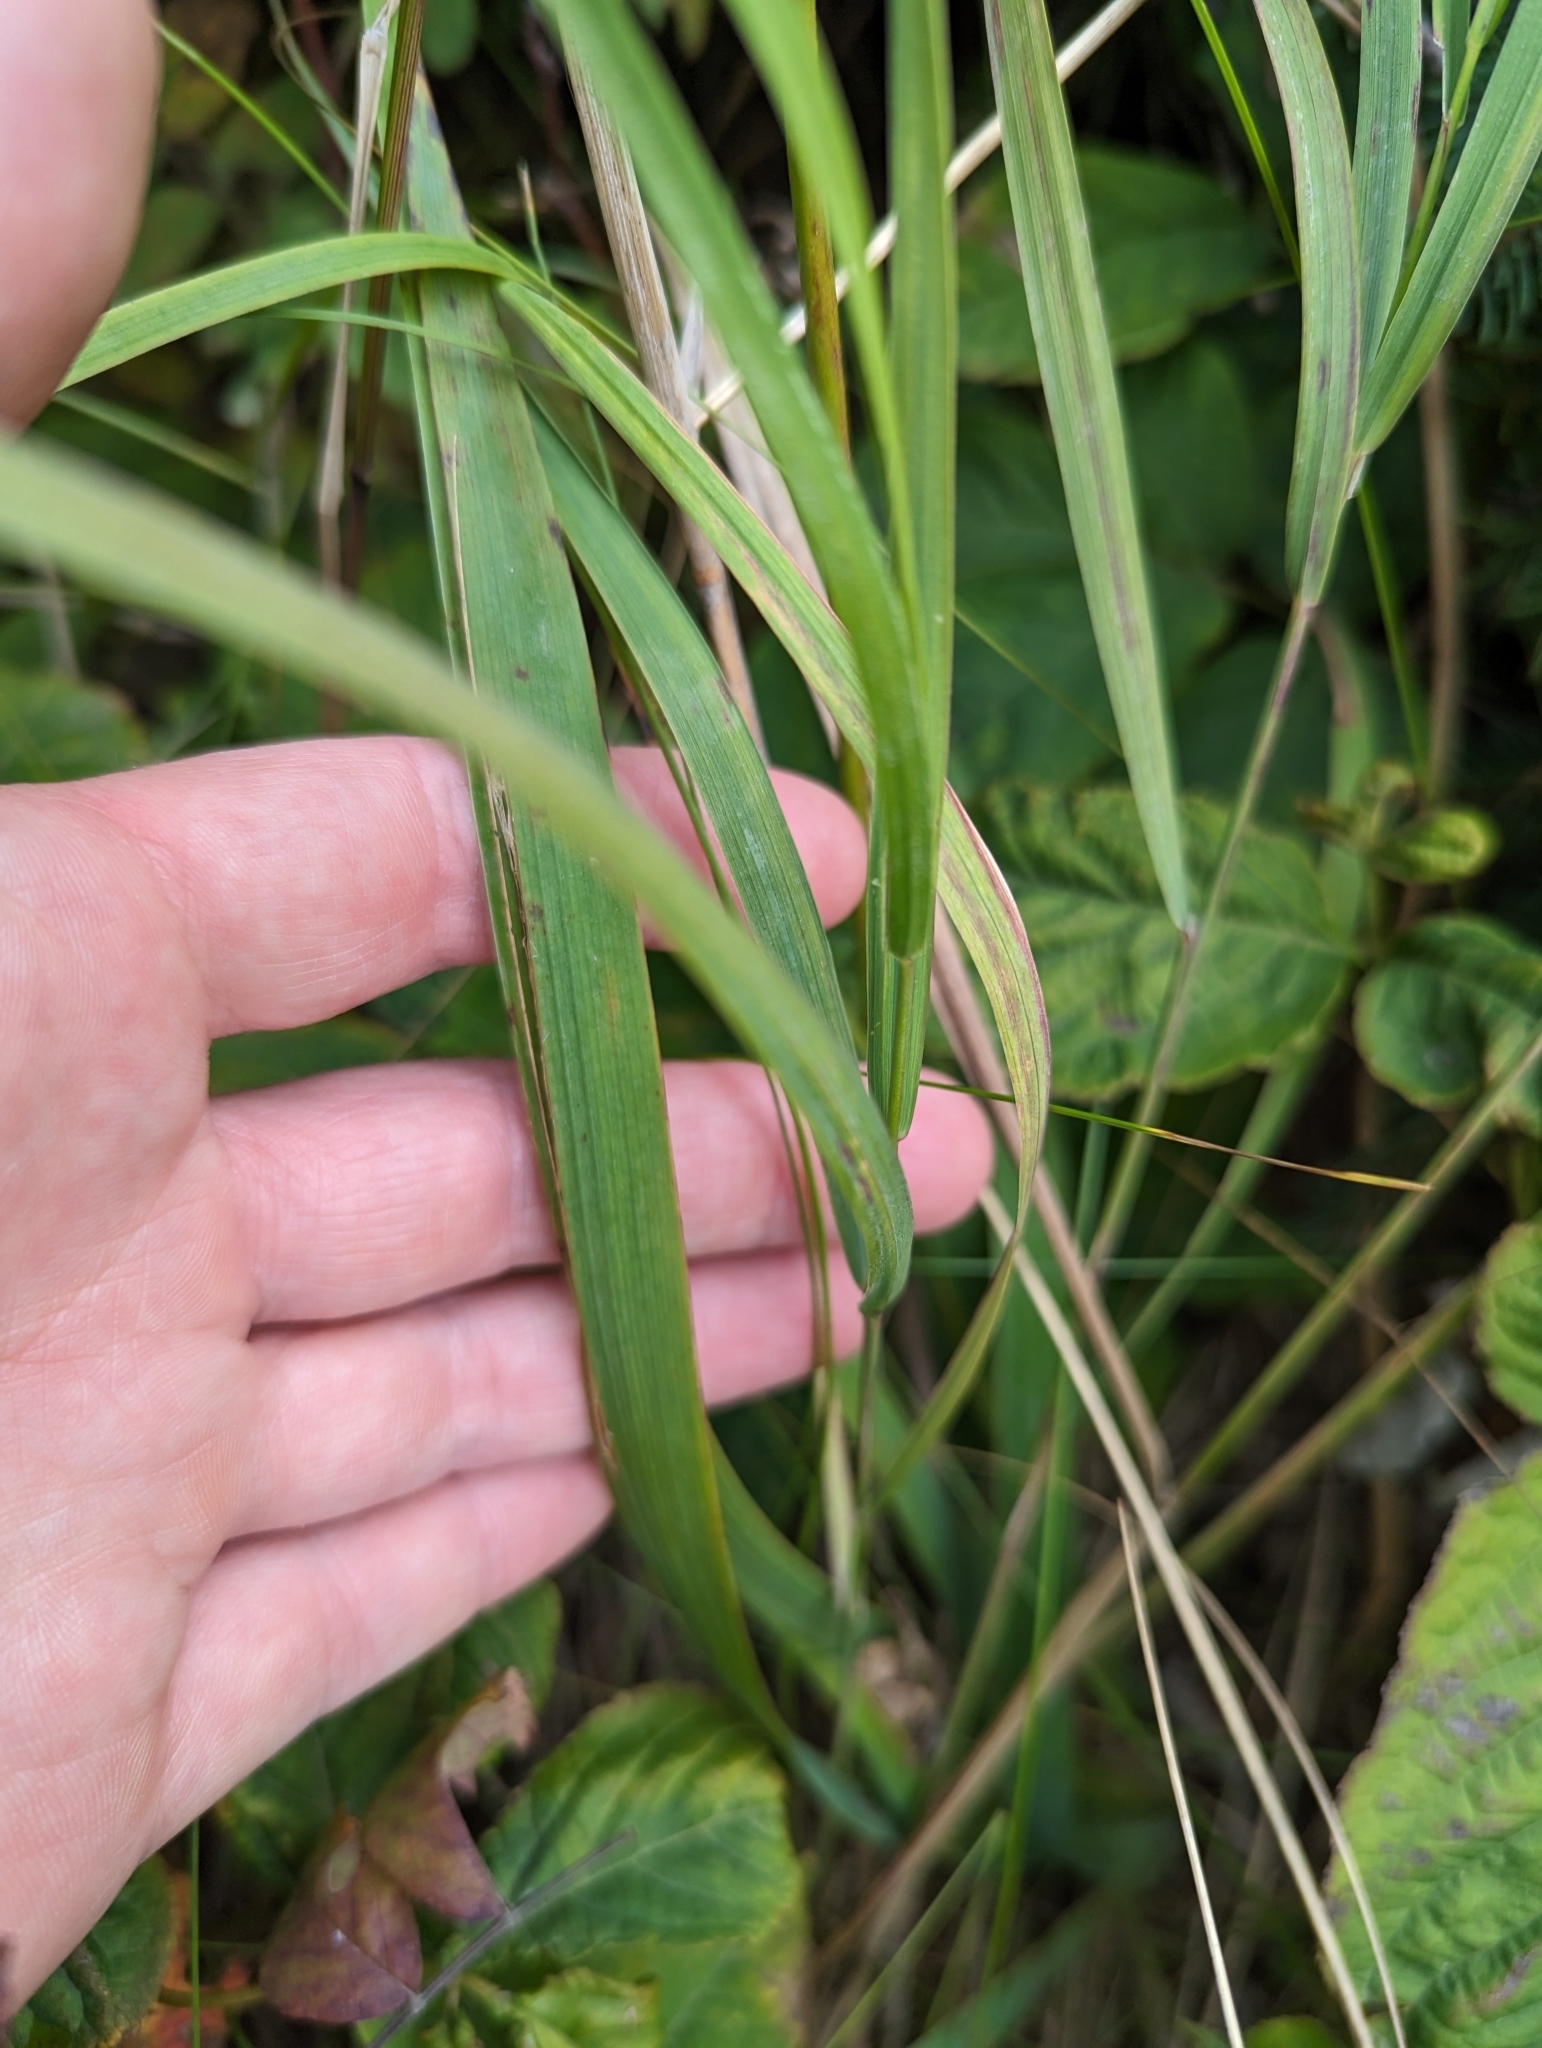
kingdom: Plantae
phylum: Tracheophyta
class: Liliopsida
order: Asparagales
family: Iridaceae
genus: Iris
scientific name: Iris hookeri
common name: Canada beach-head iris
